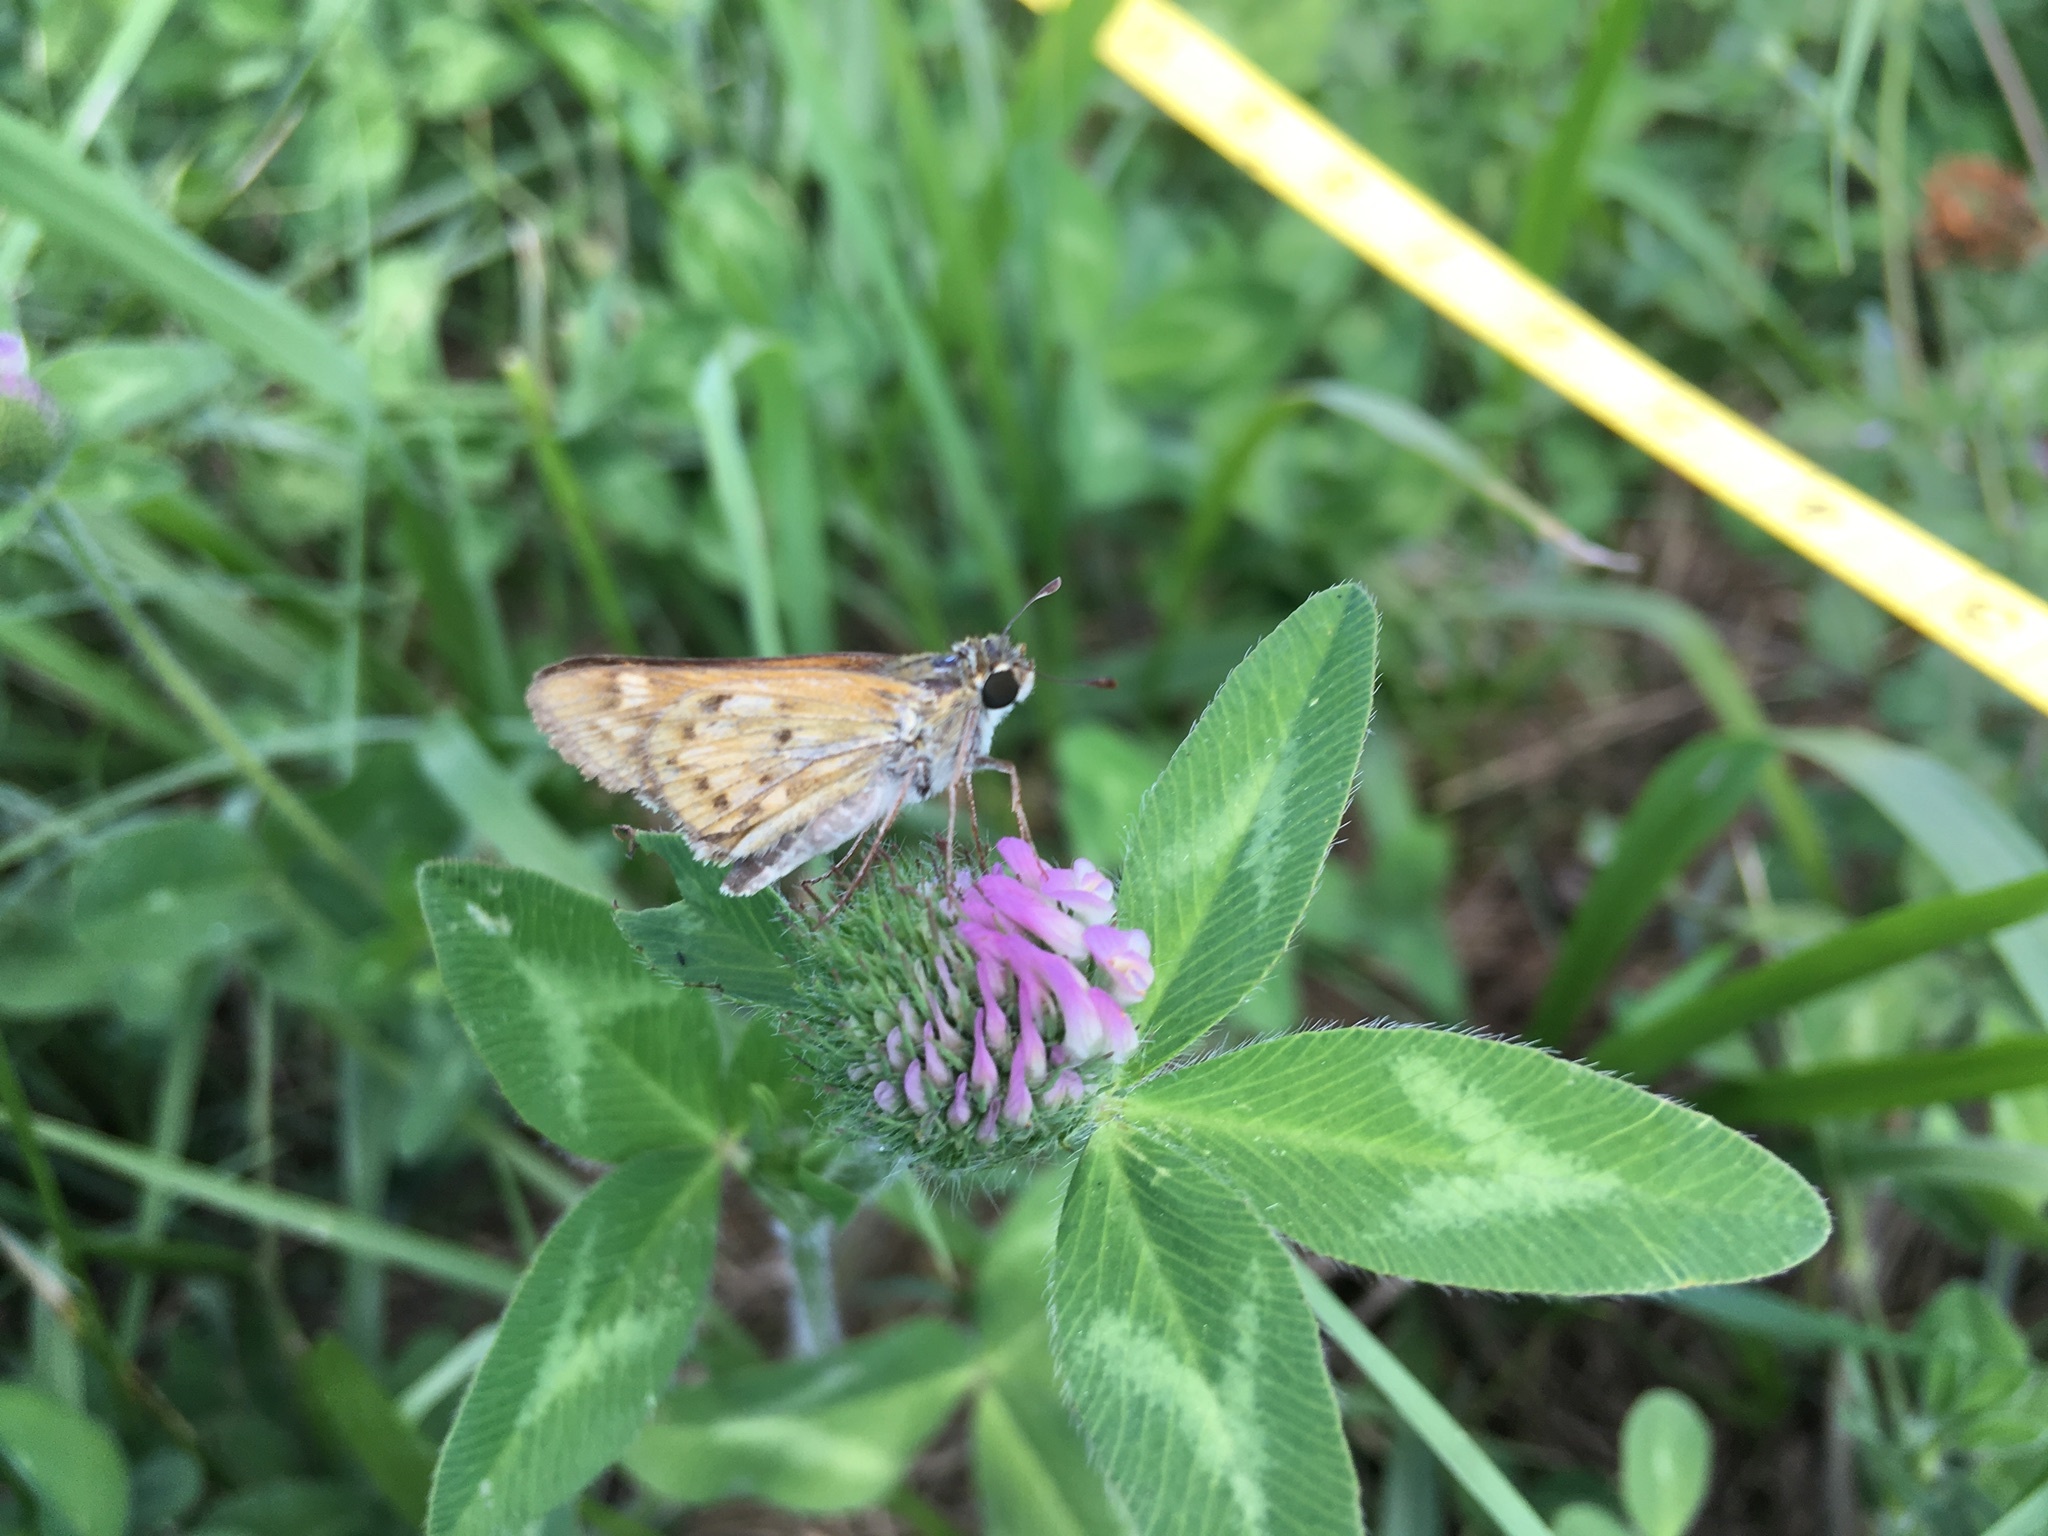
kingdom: Animalia
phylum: Arthropoda
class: Insecta
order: Lepidoptera
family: Hesperiidae
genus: Hylephila
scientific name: Hylephila phyleus
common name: Fiery skipper
